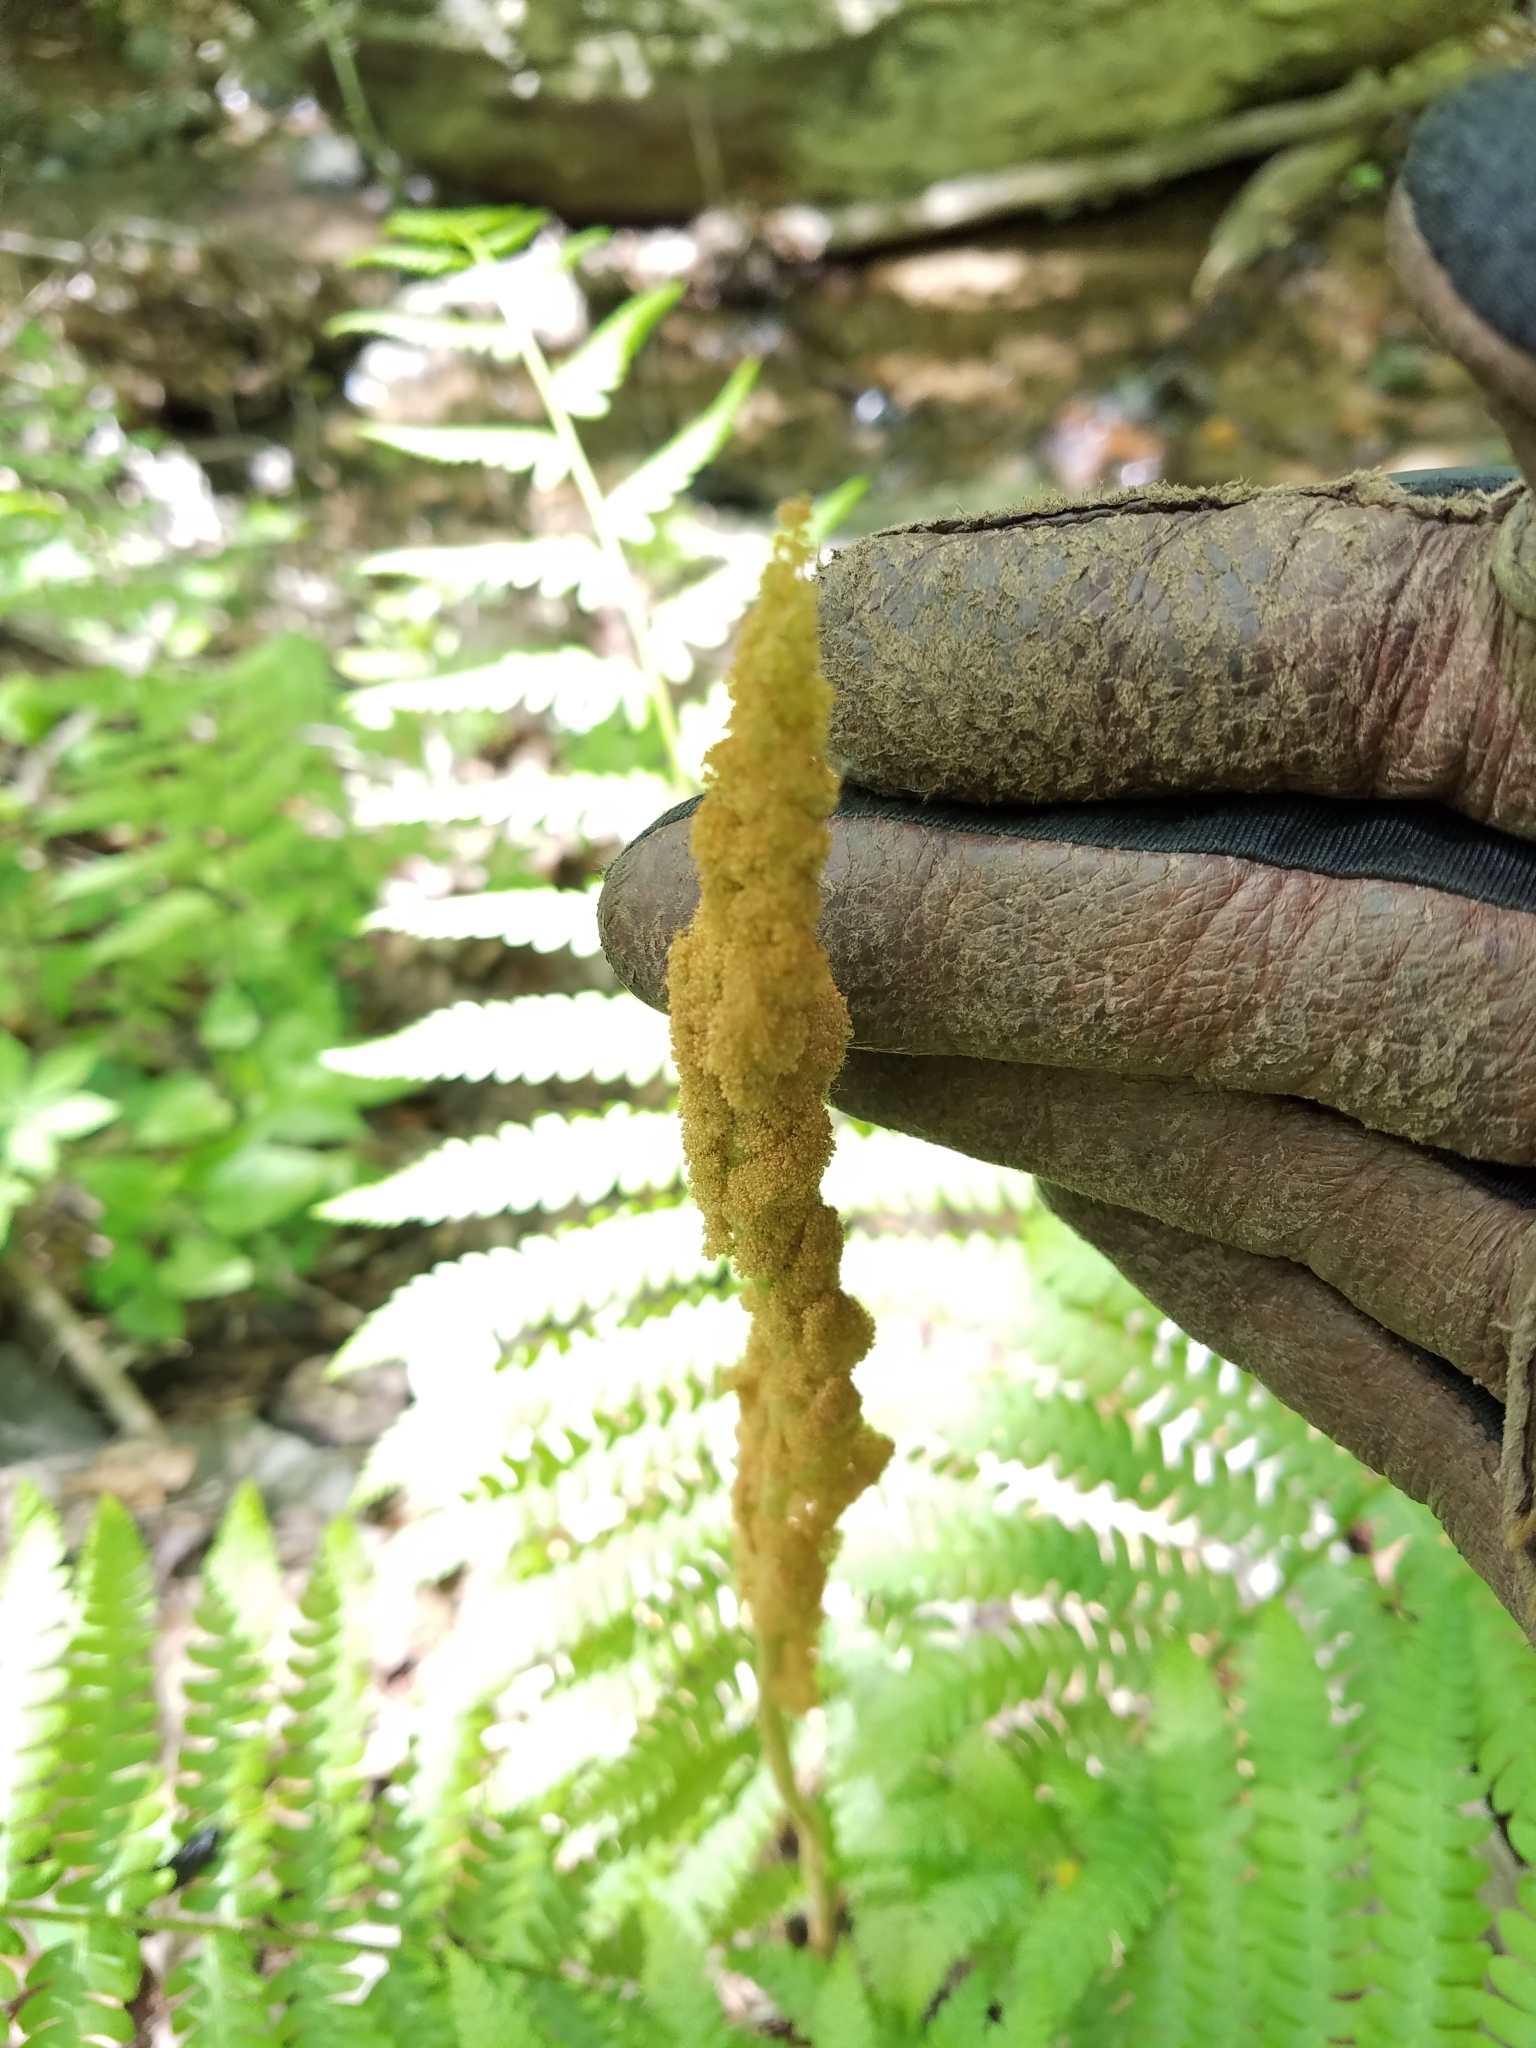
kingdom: Plantae
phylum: Tracheophyta
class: Polypodiopsida
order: Osmundales
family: Osmundaceae
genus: Osmundastrum
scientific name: Osmundastrum cinnamomeum
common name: Cinnamon fern
